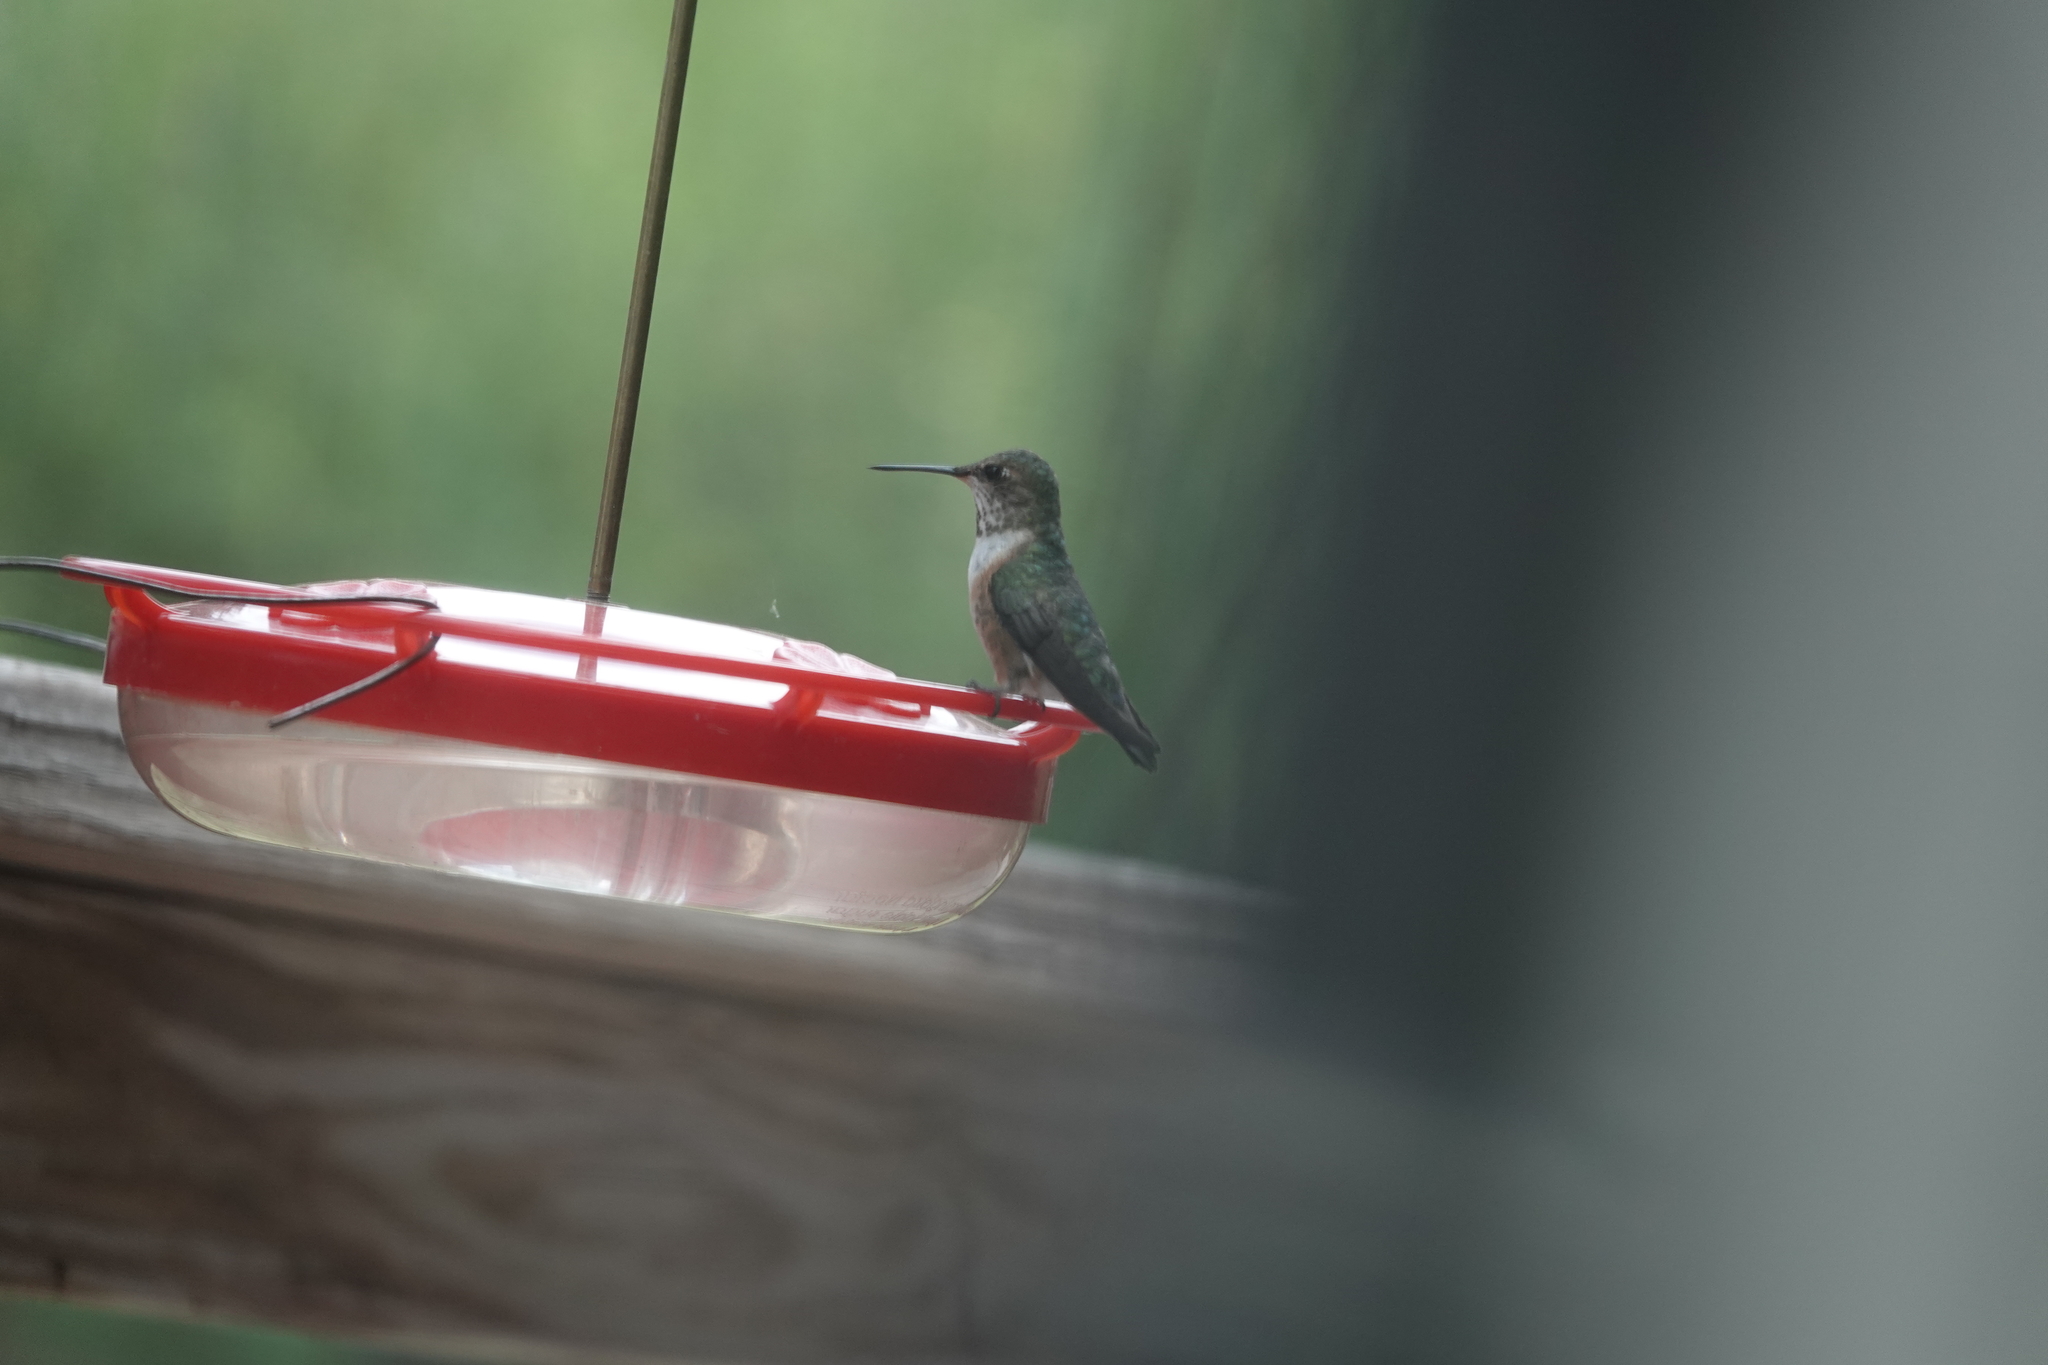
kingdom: Animalia
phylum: Chordata
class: Aves
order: Apodiformes
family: Trochilidae
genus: Selasphorus
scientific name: Selasphorus rufus
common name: Rufous hummingbird
